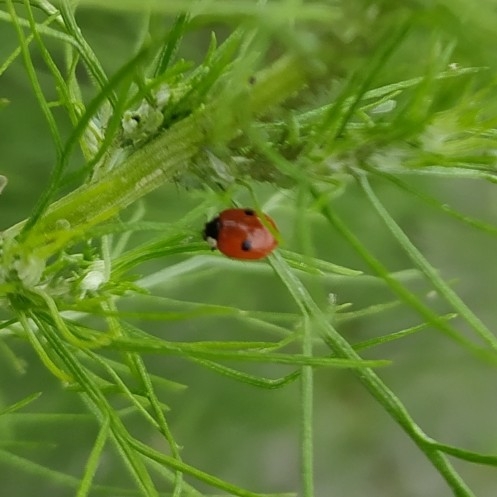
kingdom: Animalia
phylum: Arthropoda
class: Insecta
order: Coleoptera
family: Coccinellidae
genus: Adalia
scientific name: Adalia bipunctata
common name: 2-spot ladybird
